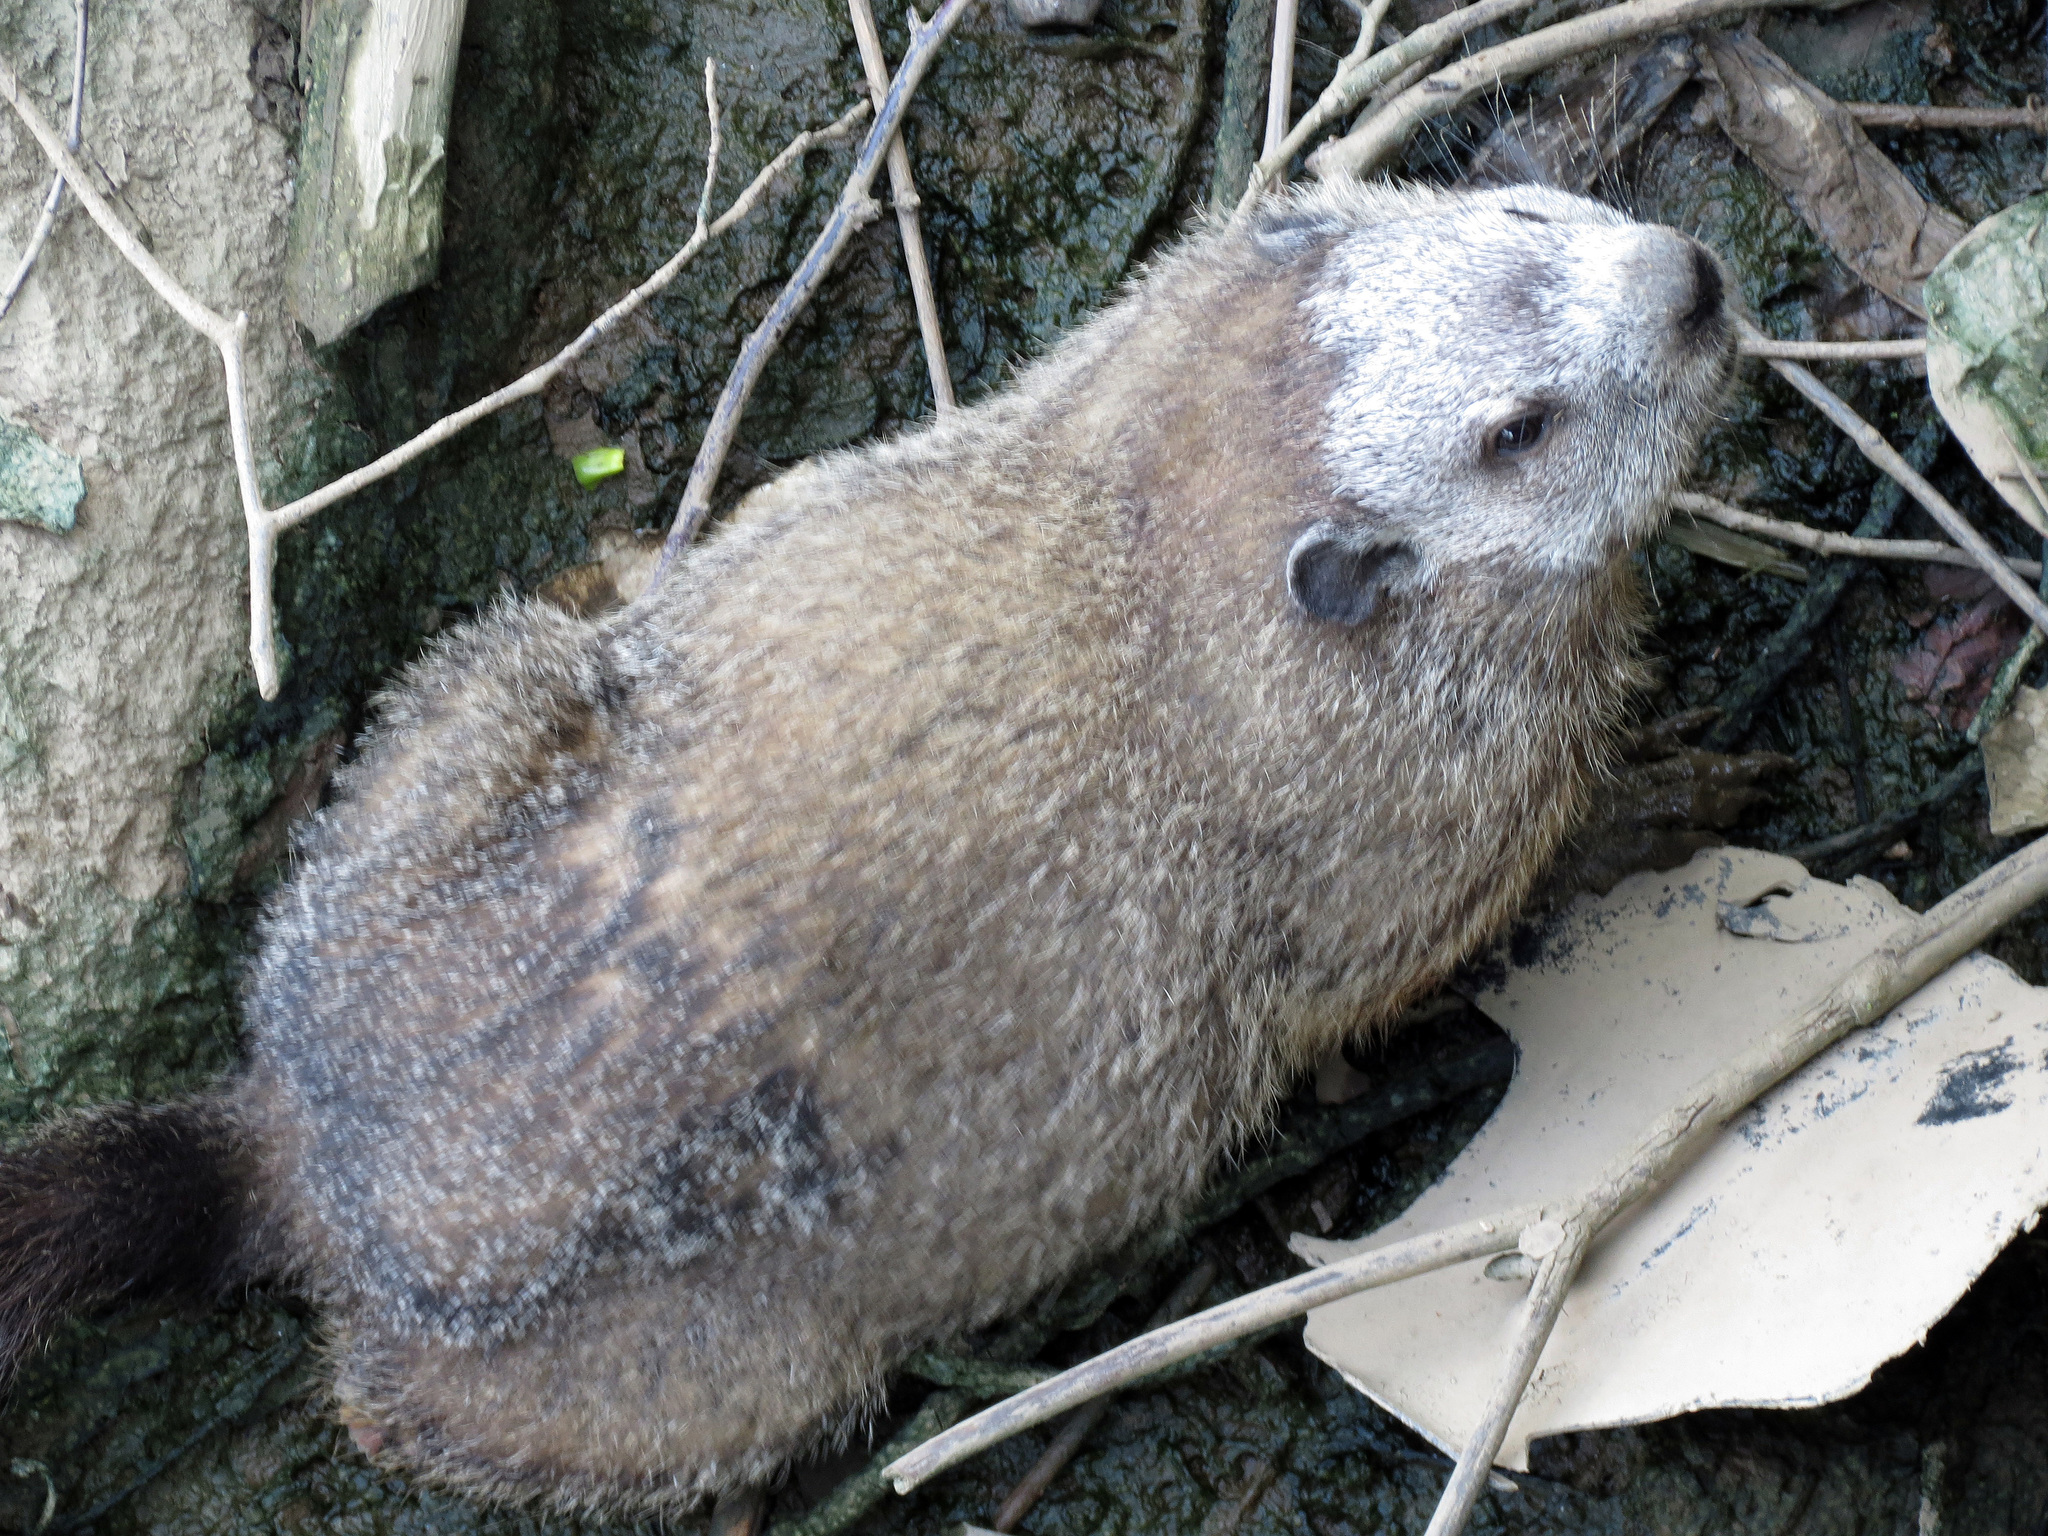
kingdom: Animalia
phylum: Chordata
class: Mammalia
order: Rodentia
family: Sciuridae
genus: Marmota
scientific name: Marmota monax
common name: Groundhog
